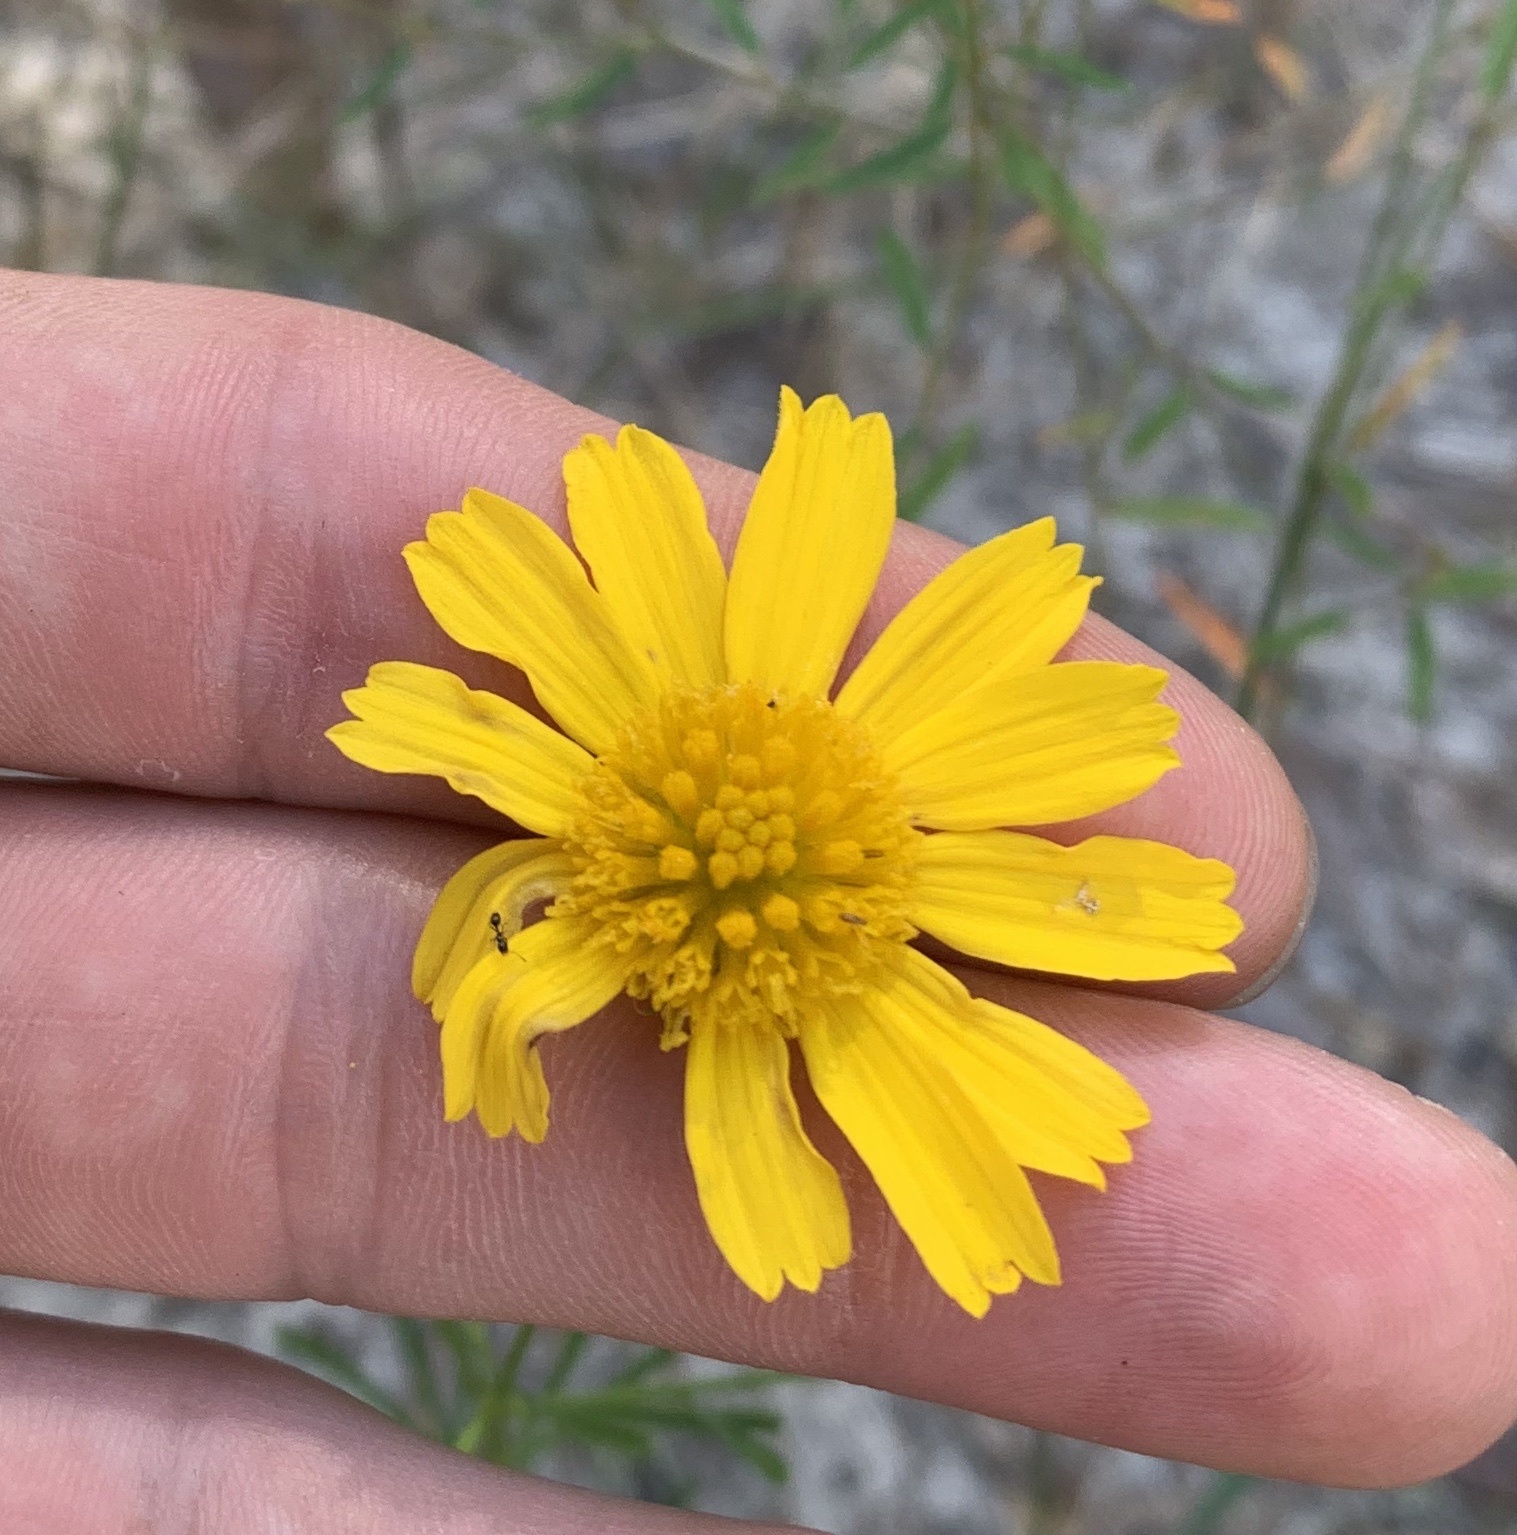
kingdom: Plantae
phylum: Tracheophyta
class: Magnoliopsida
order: Asterales
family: Asteraceae
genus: Balduina
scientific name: Balduina angustifolia
